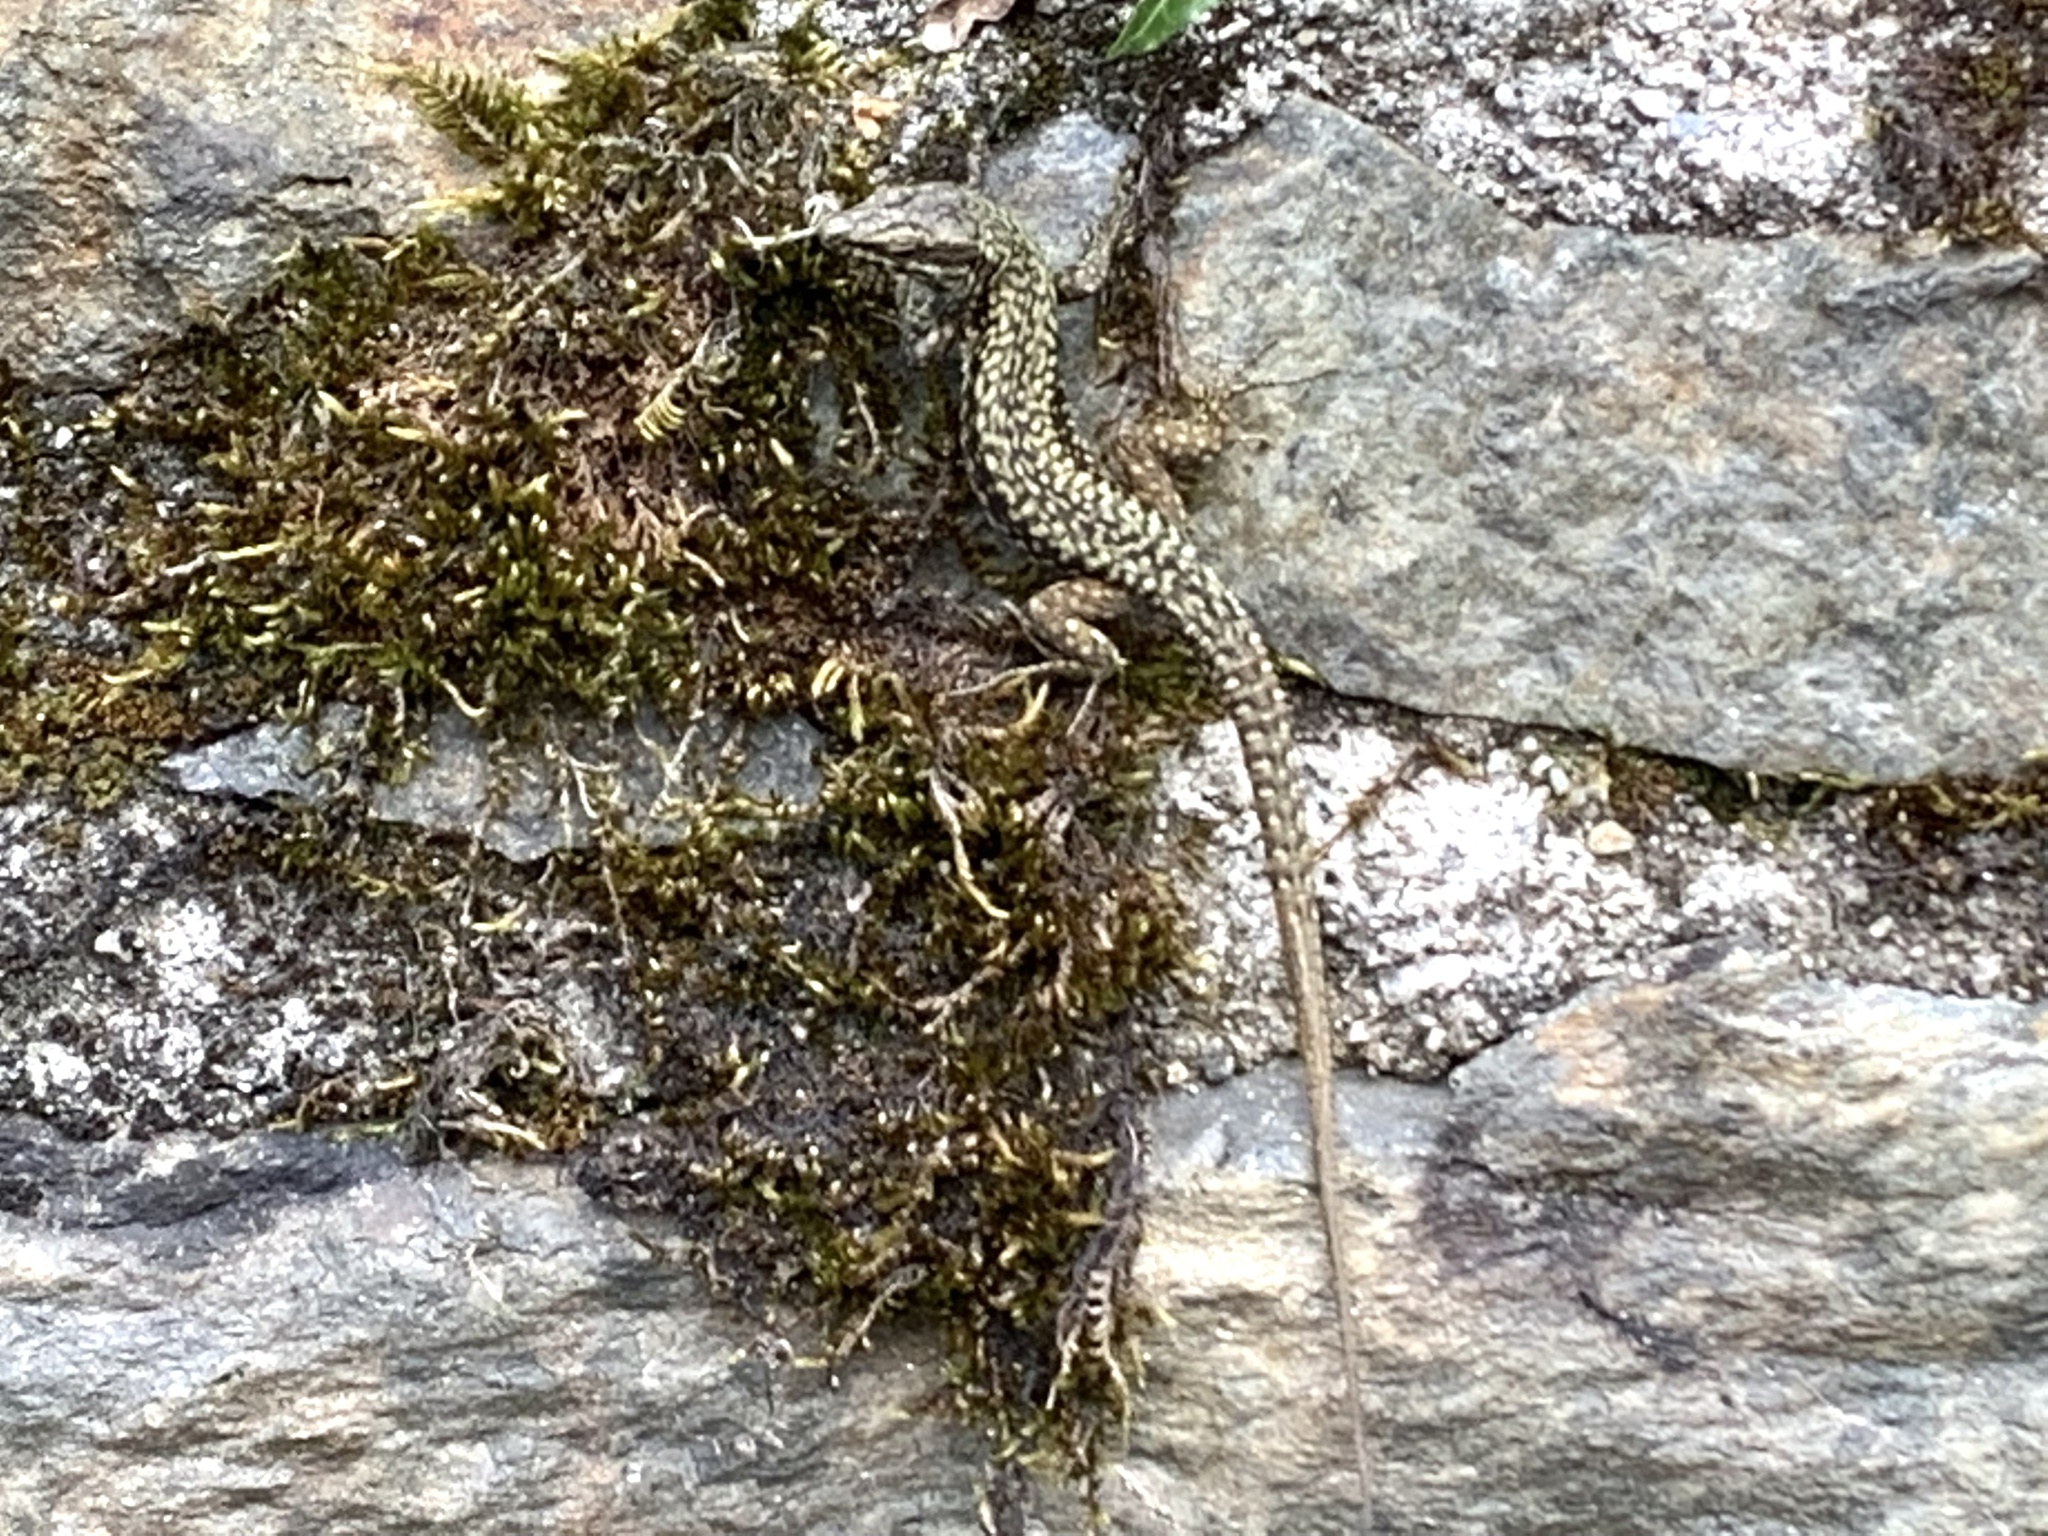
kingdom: Animalia
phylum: Chordata
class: Squamata
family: Lacertidae
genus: Podarcis
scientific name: Podarcis muralis
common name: Common wall lizard
